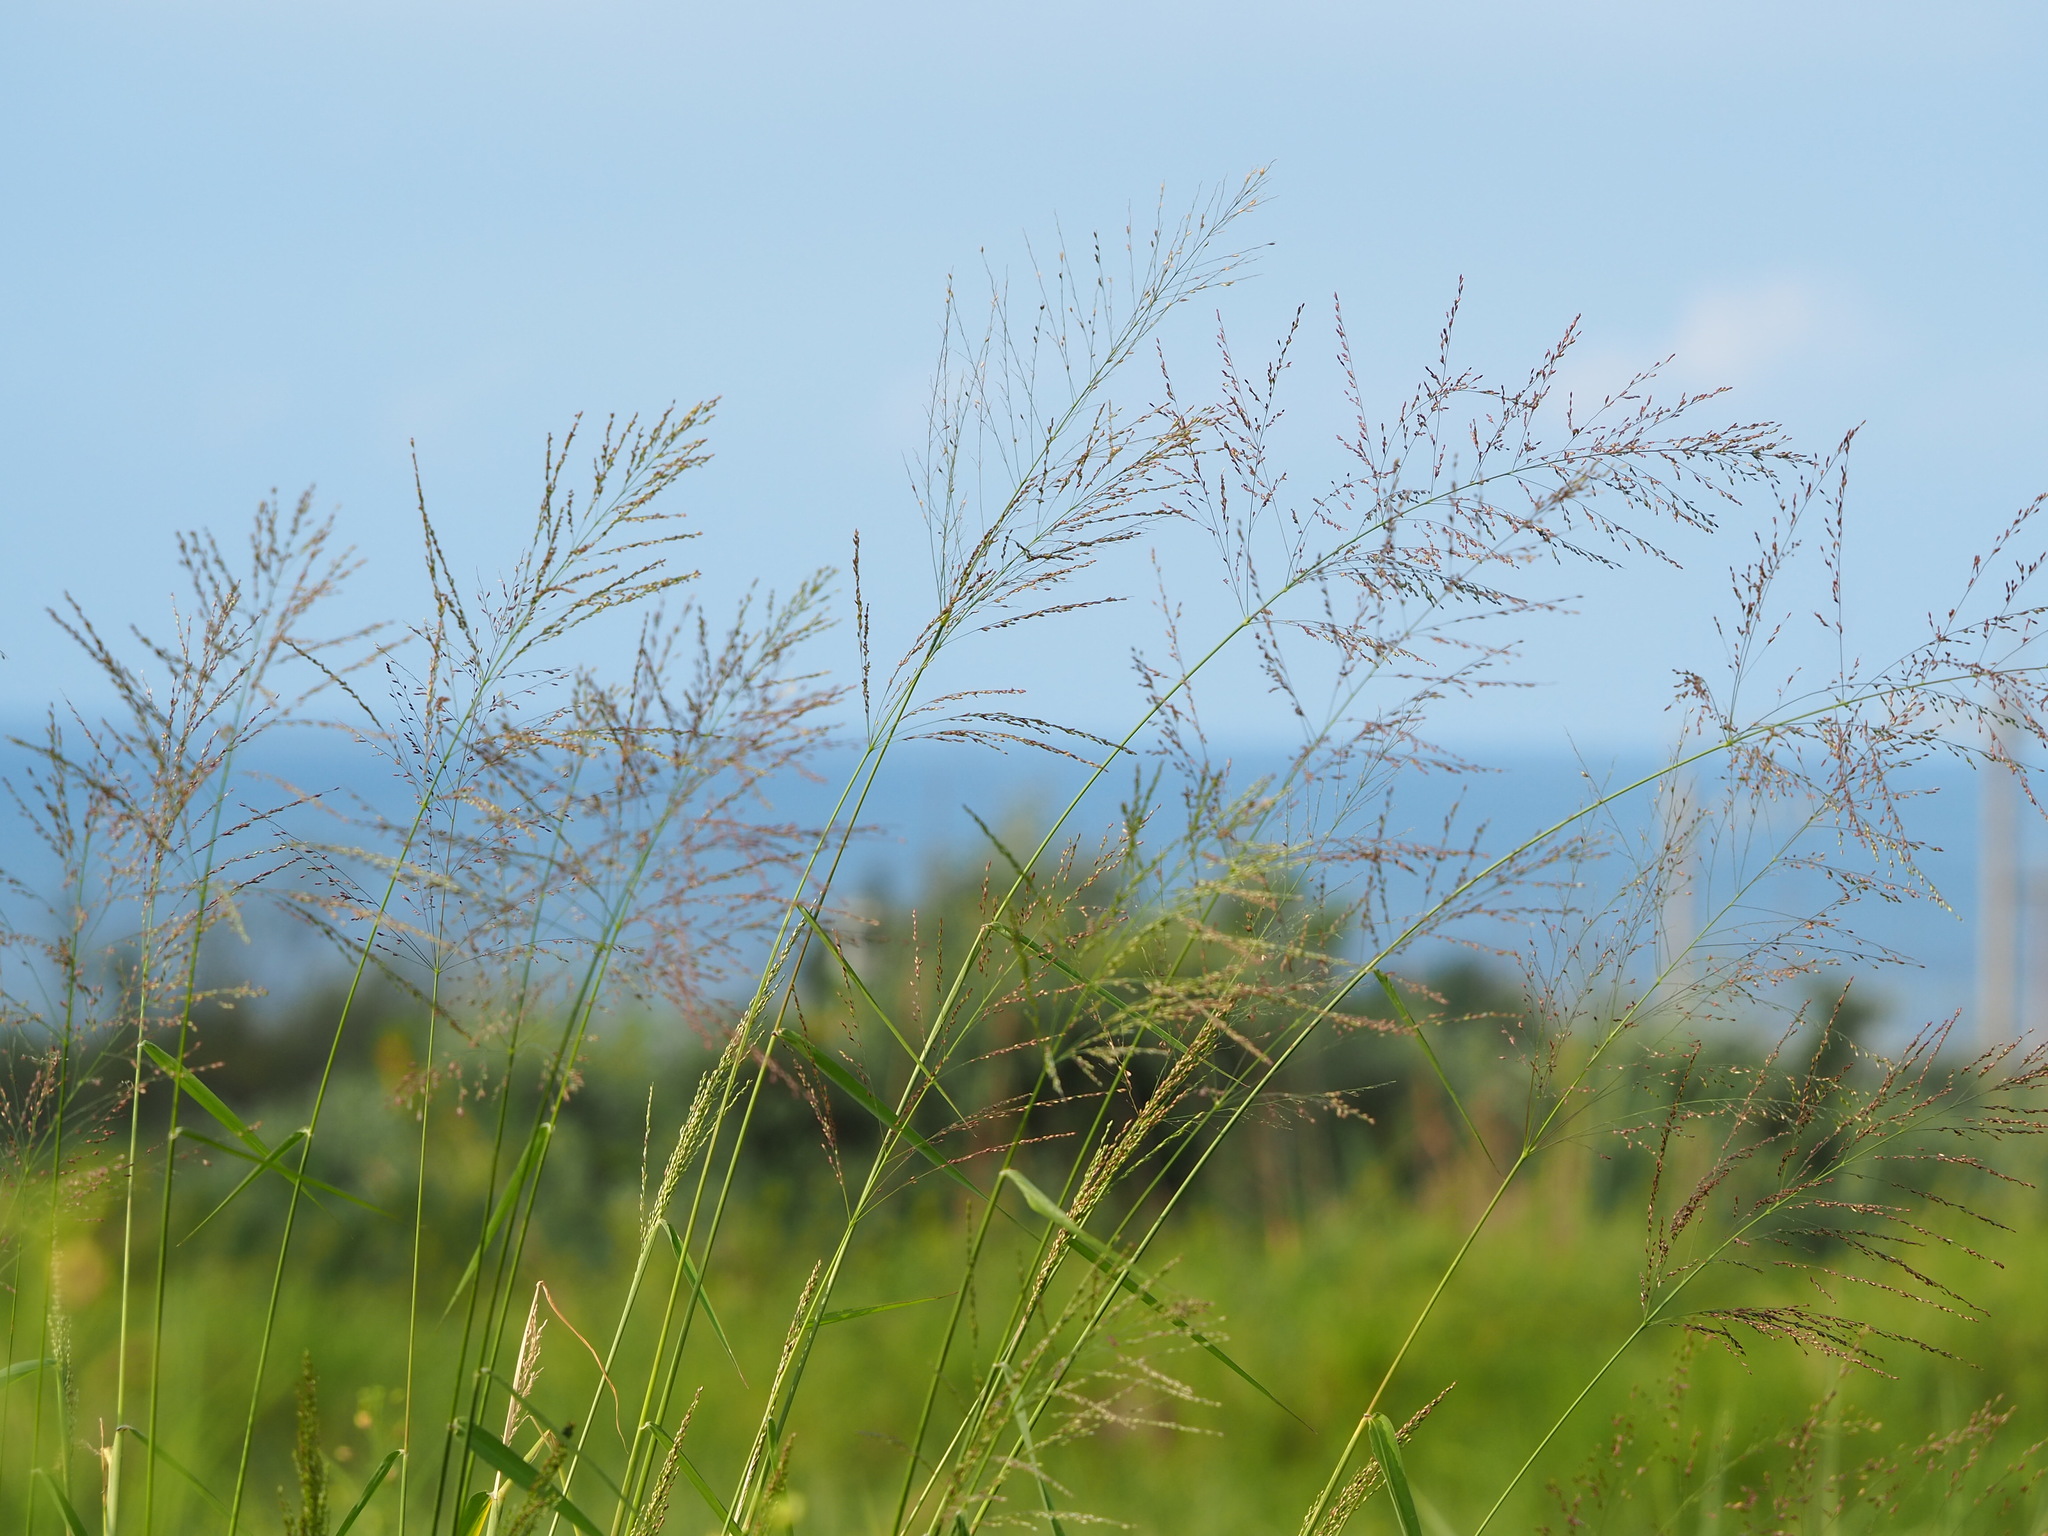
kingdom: Plantae
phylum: Tracheophyta
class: Liliopsida
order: Poales
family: Poaceae
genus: Megathyrsus
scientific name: Megathyrsus maximus
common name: Guineagrass
